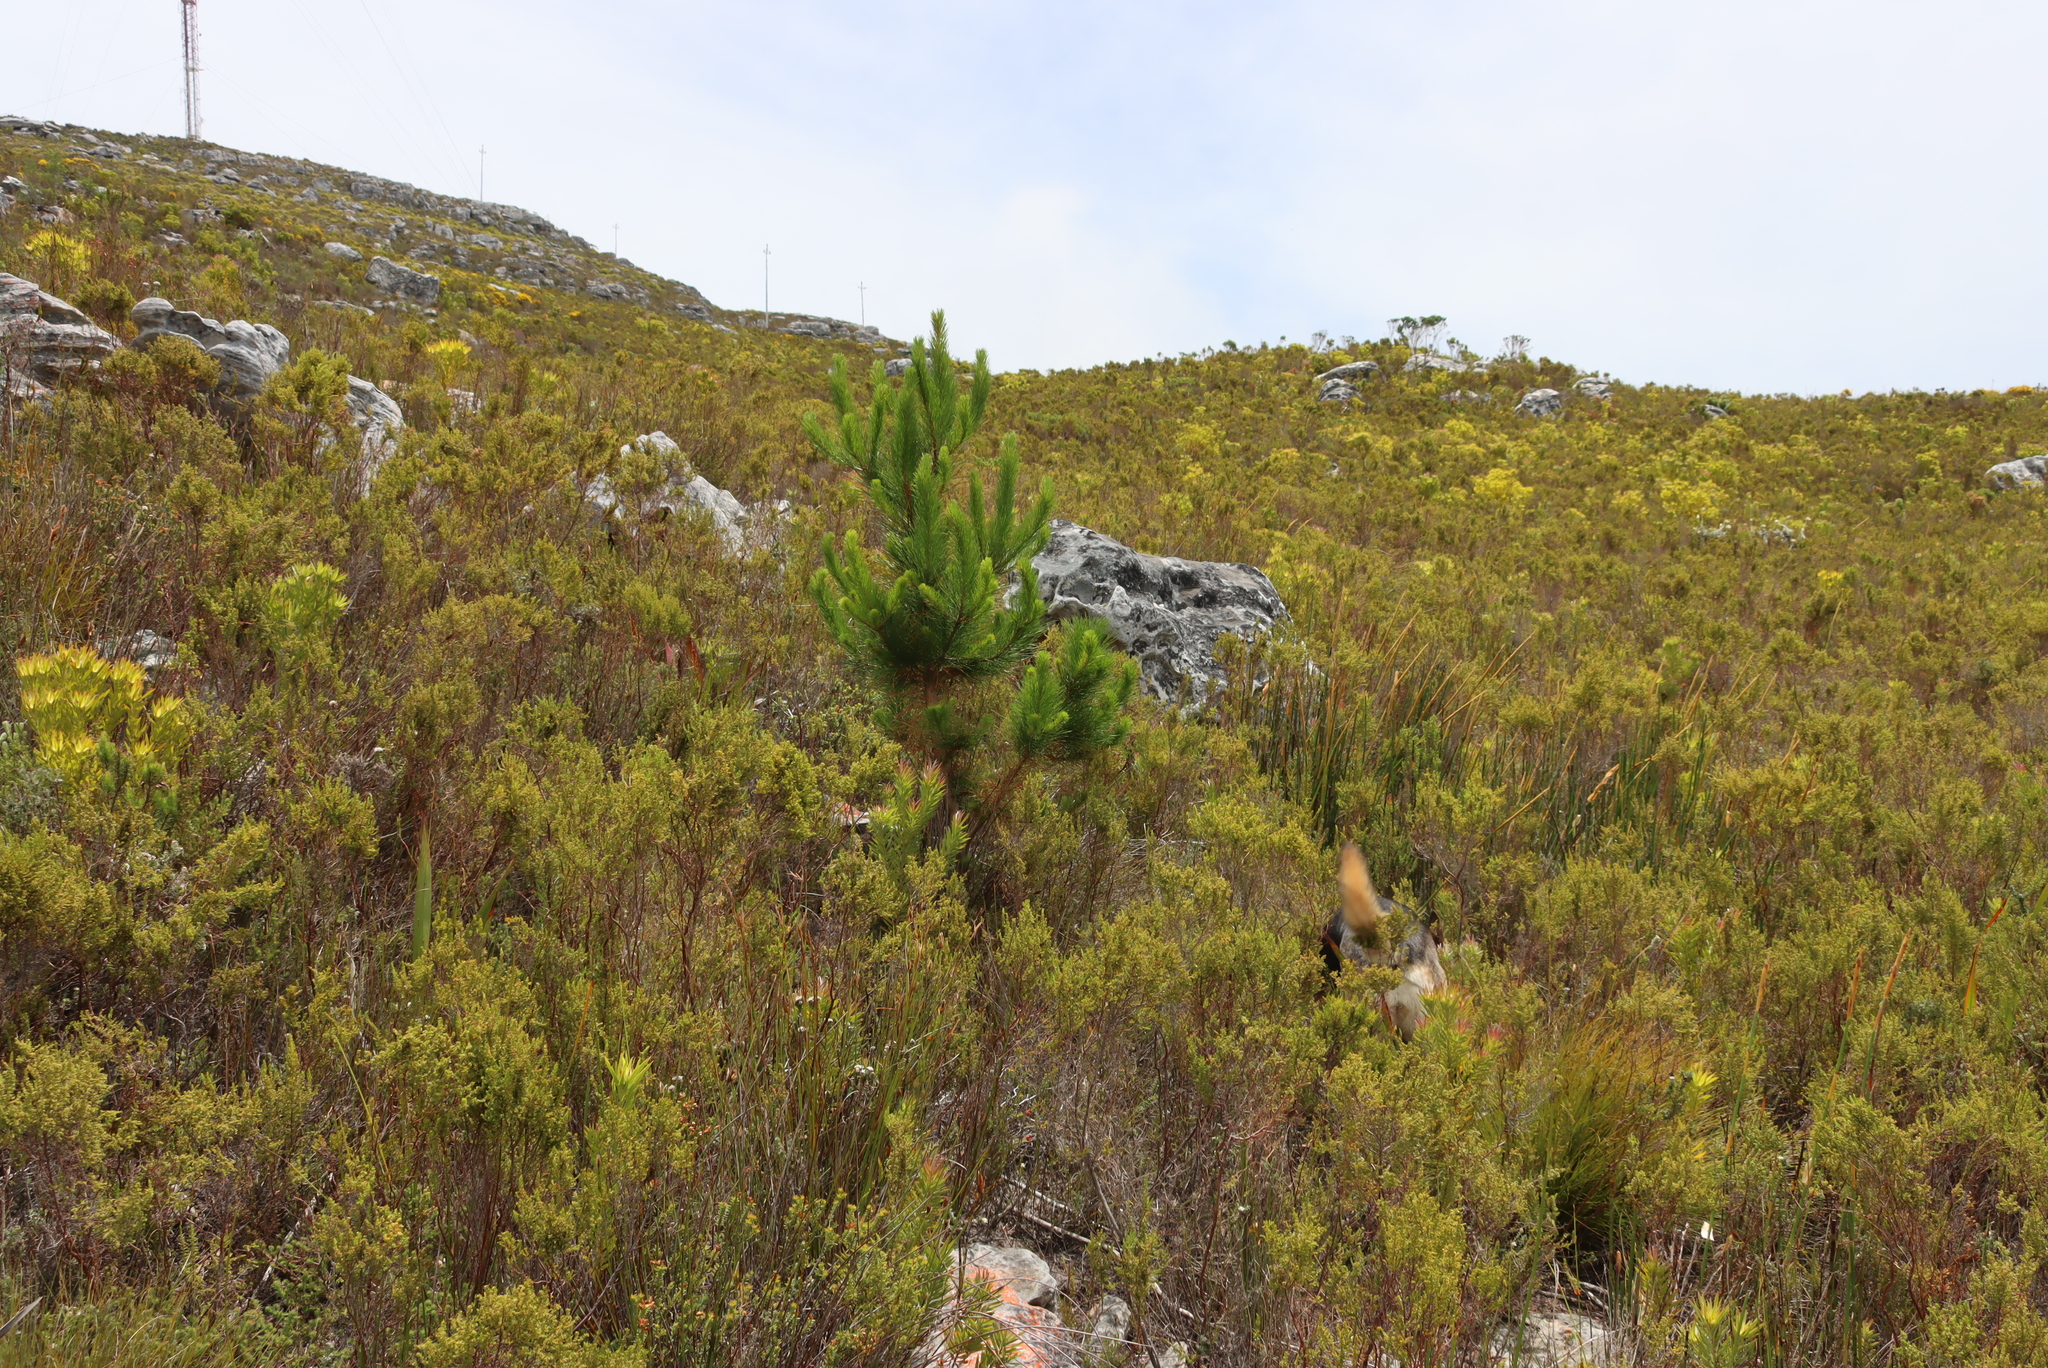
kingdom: Plantae
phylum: Tracheophyta
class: Pinopsida
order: Pinales
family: Pinaceae
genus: Pinus
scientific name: Pinus radiata
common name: Monterey pine
